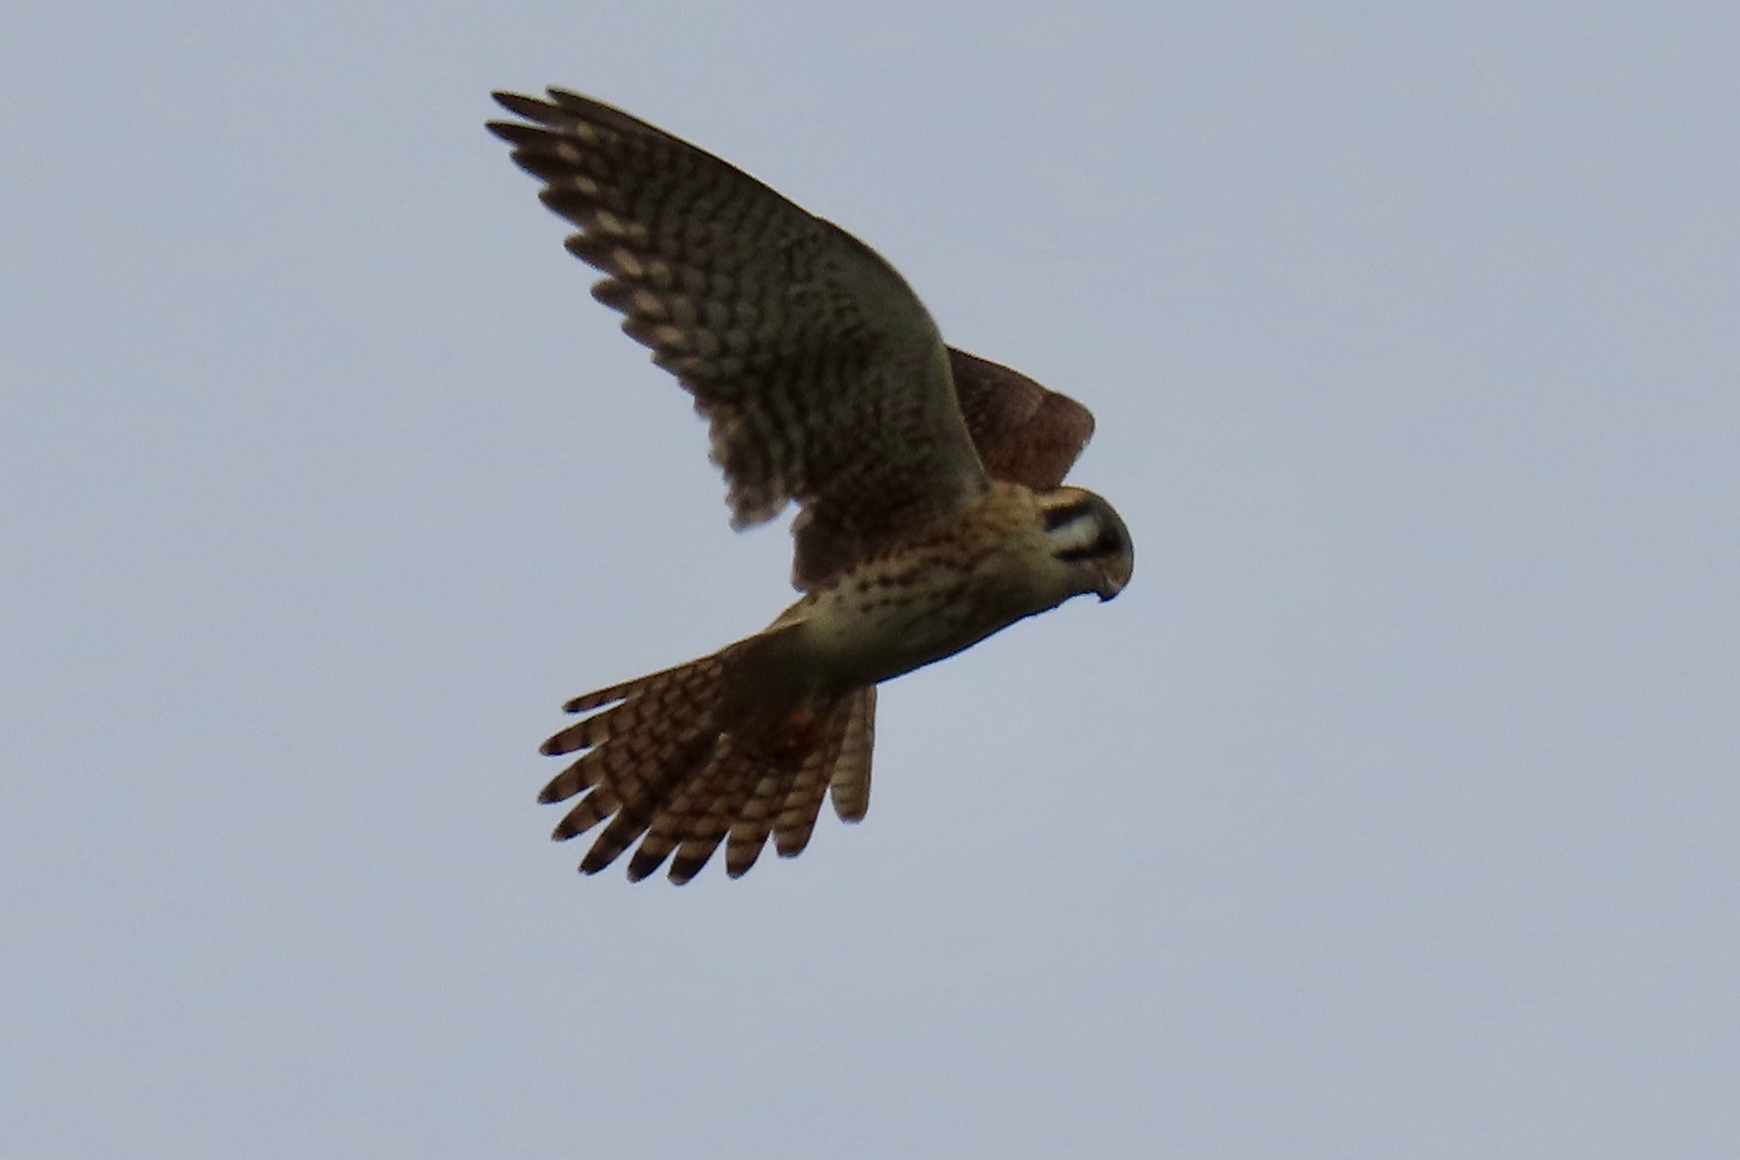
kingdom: Animalia
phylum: Chordata
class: Aves
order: Falconiformes
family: Falconidae
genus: Falco
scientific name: Falco sparverius
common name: American kestrel
